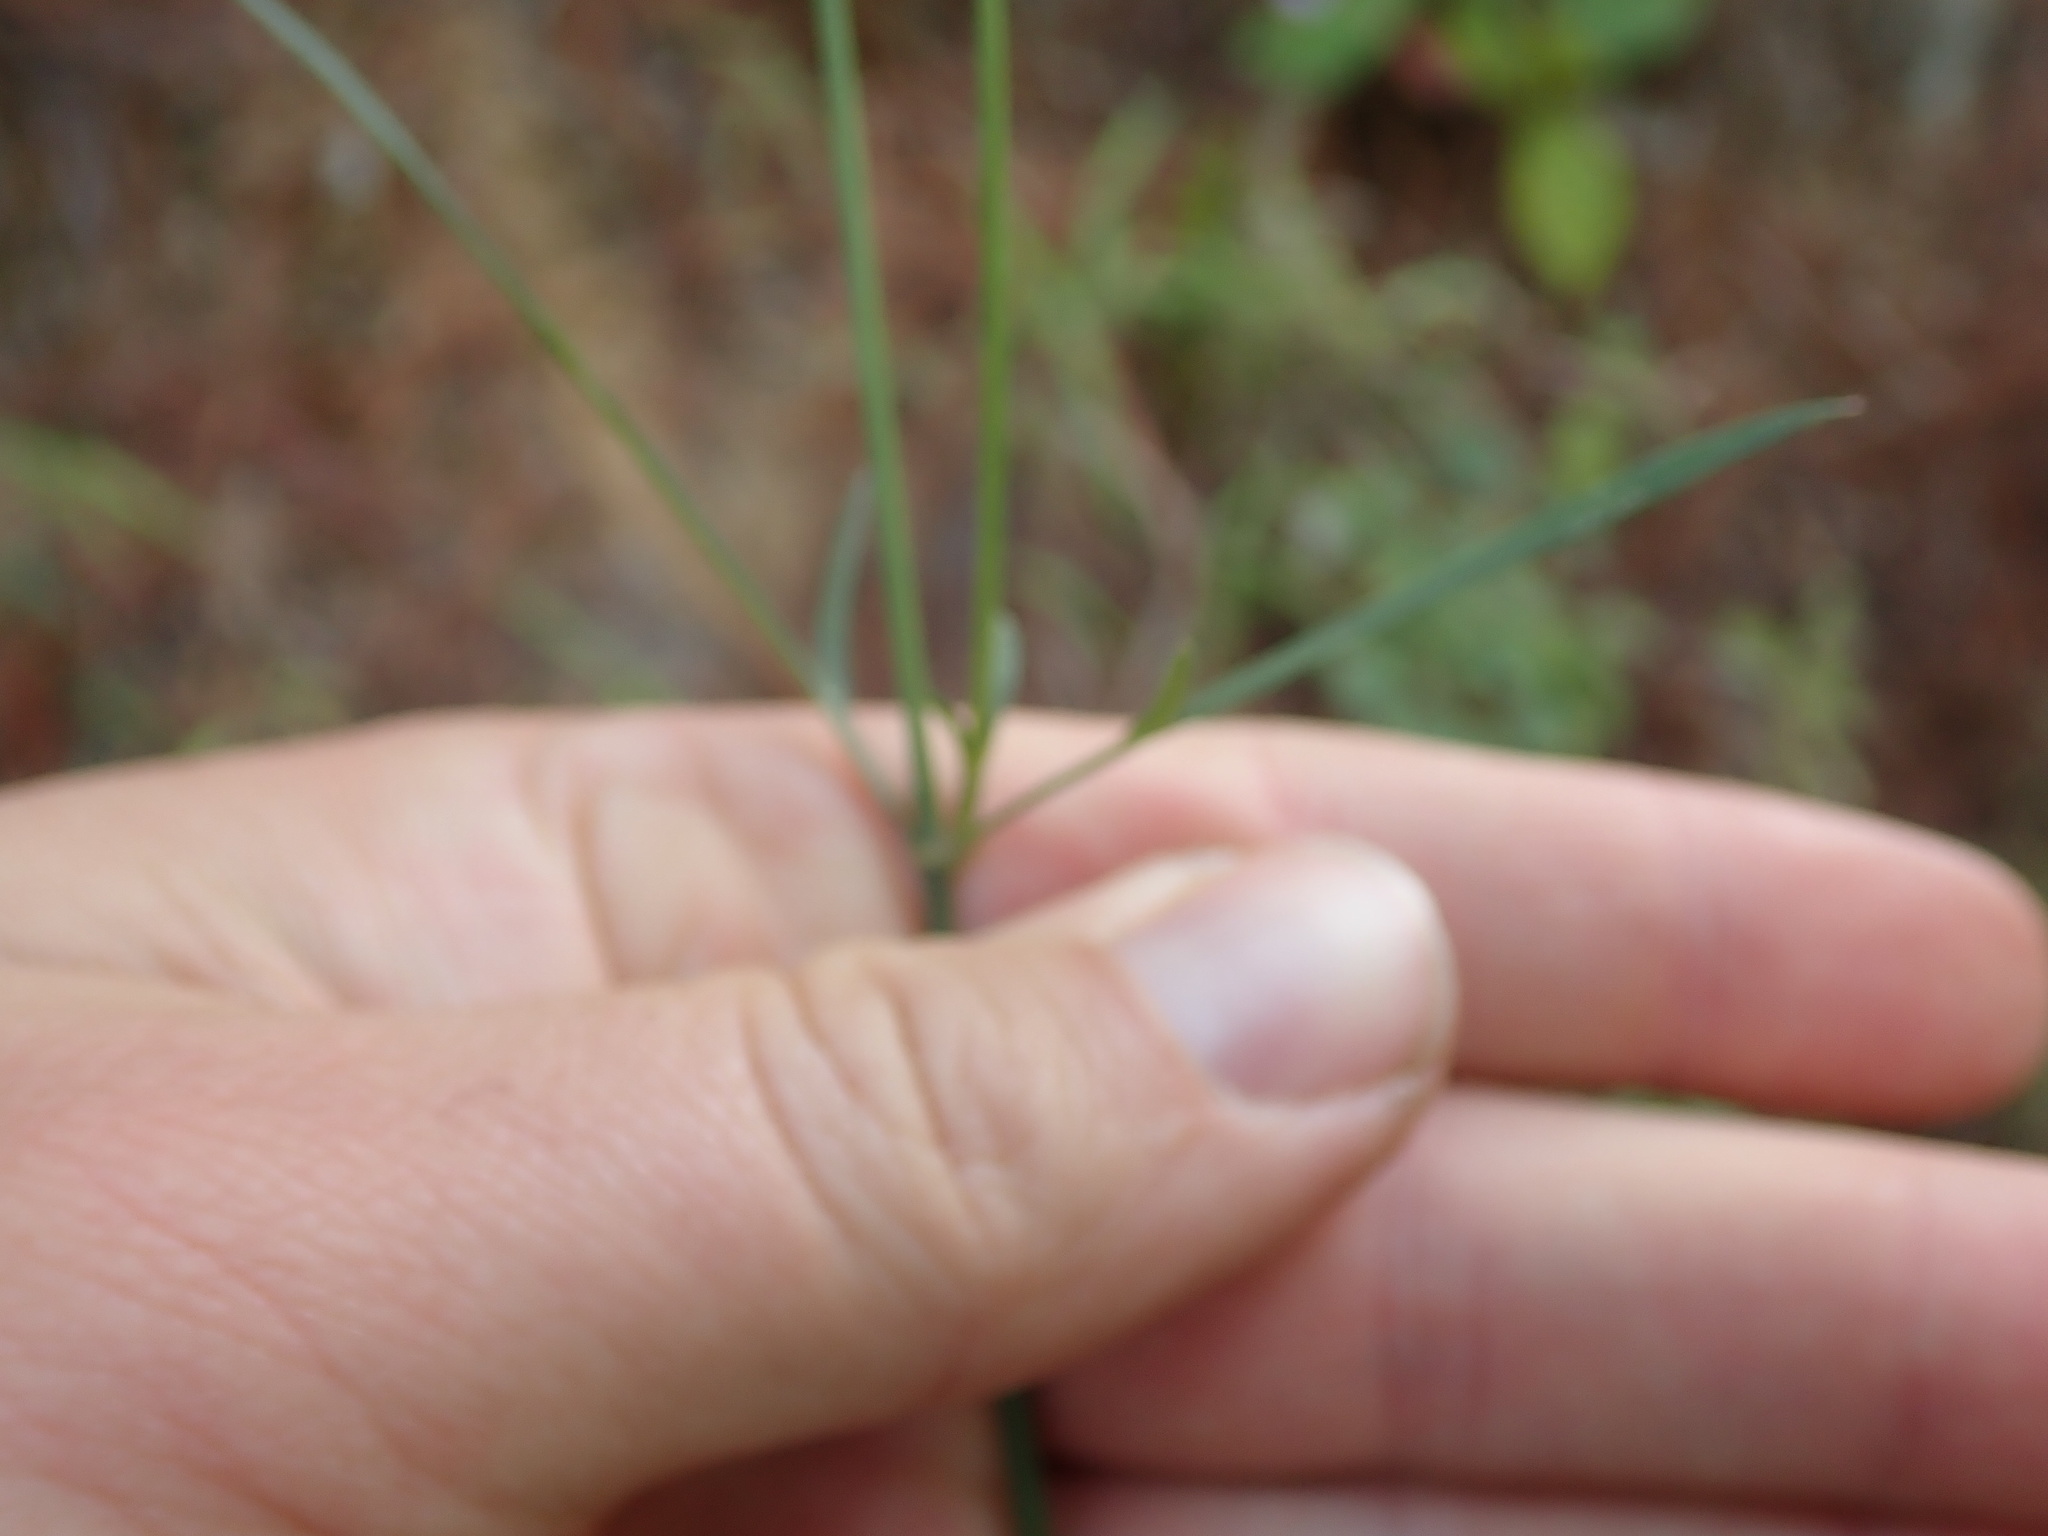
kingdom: Plantae
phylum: Tracheophyta
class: Magnoliopsida
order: Asterales
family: Asteraceae
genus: Cosmos
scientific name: Cosmos crithmifolius
